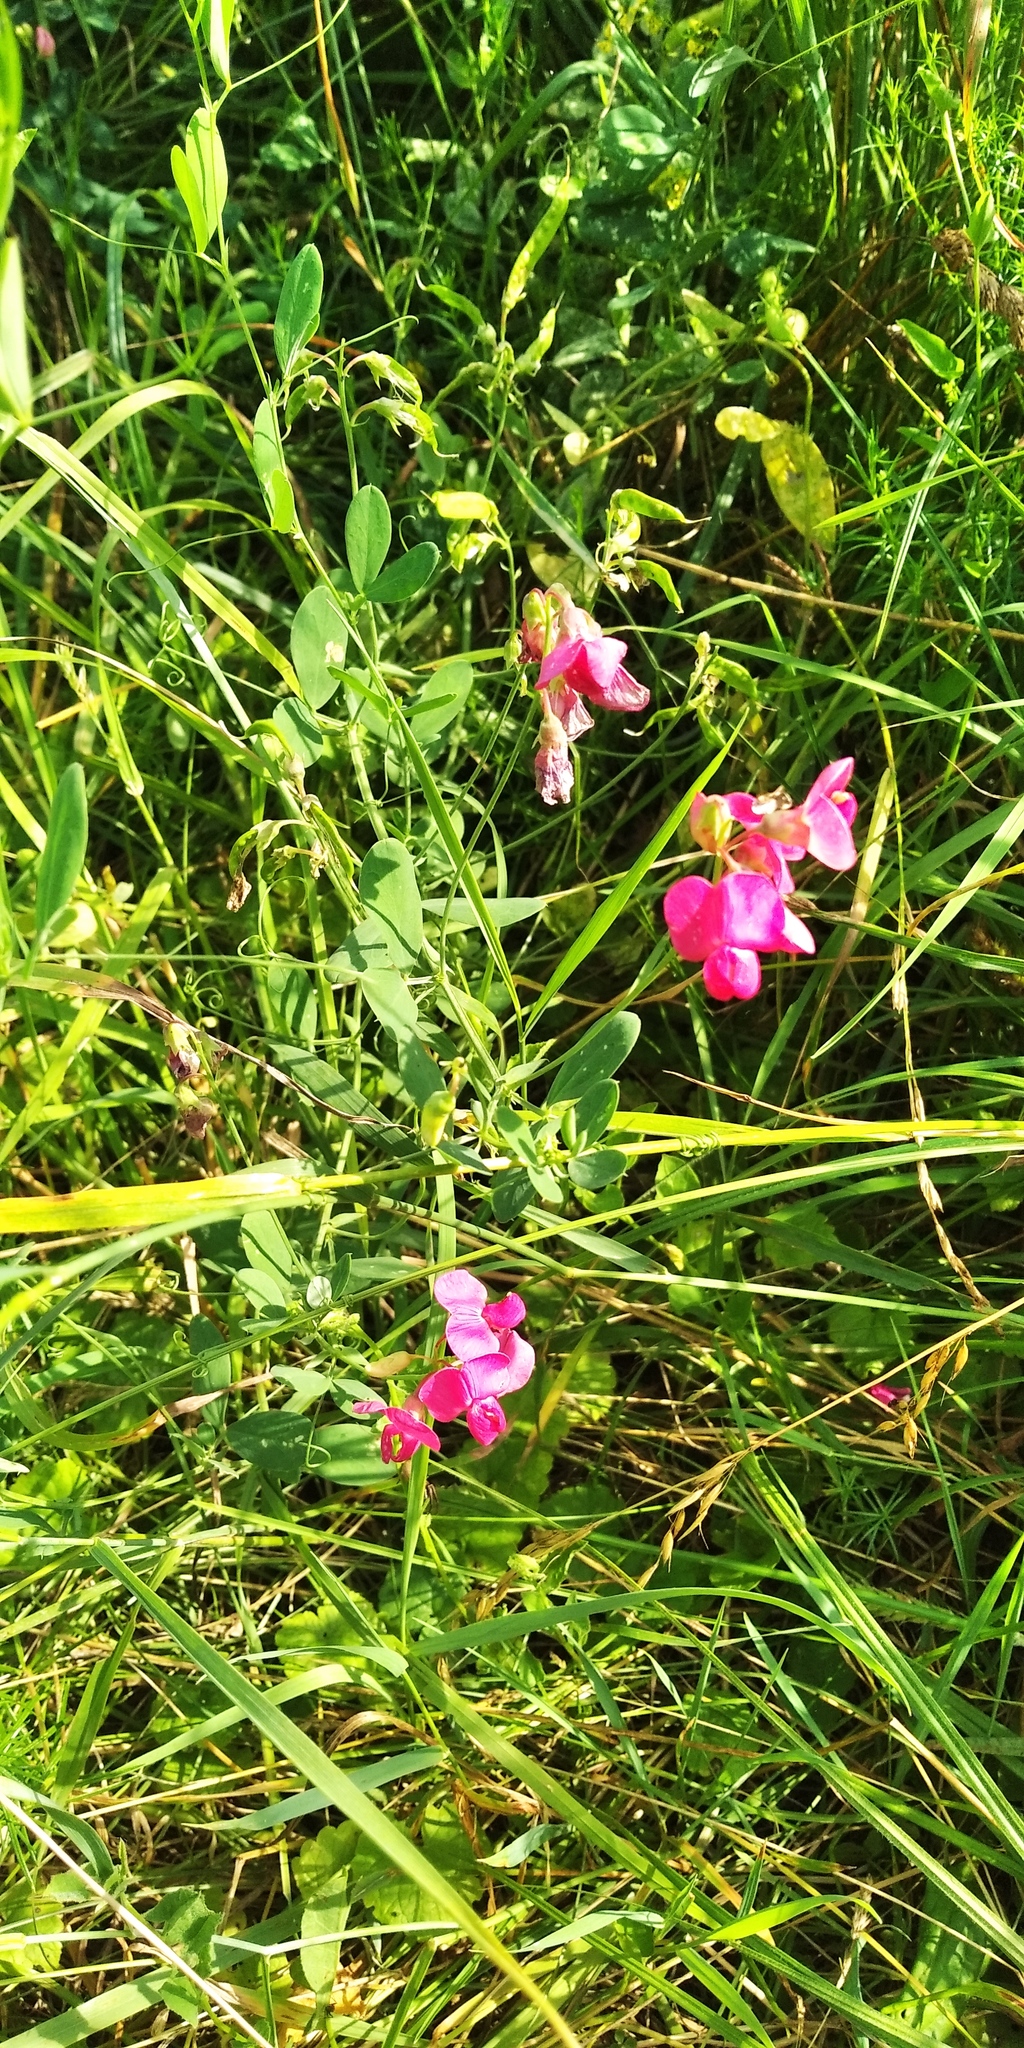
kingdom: Plantae
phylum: Tracheophyta
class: Magnoliopsida
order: Fabales
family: Fabaceae
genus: Lathyrus
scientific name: Lathyrus tuberosus
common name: Tuberous pea
